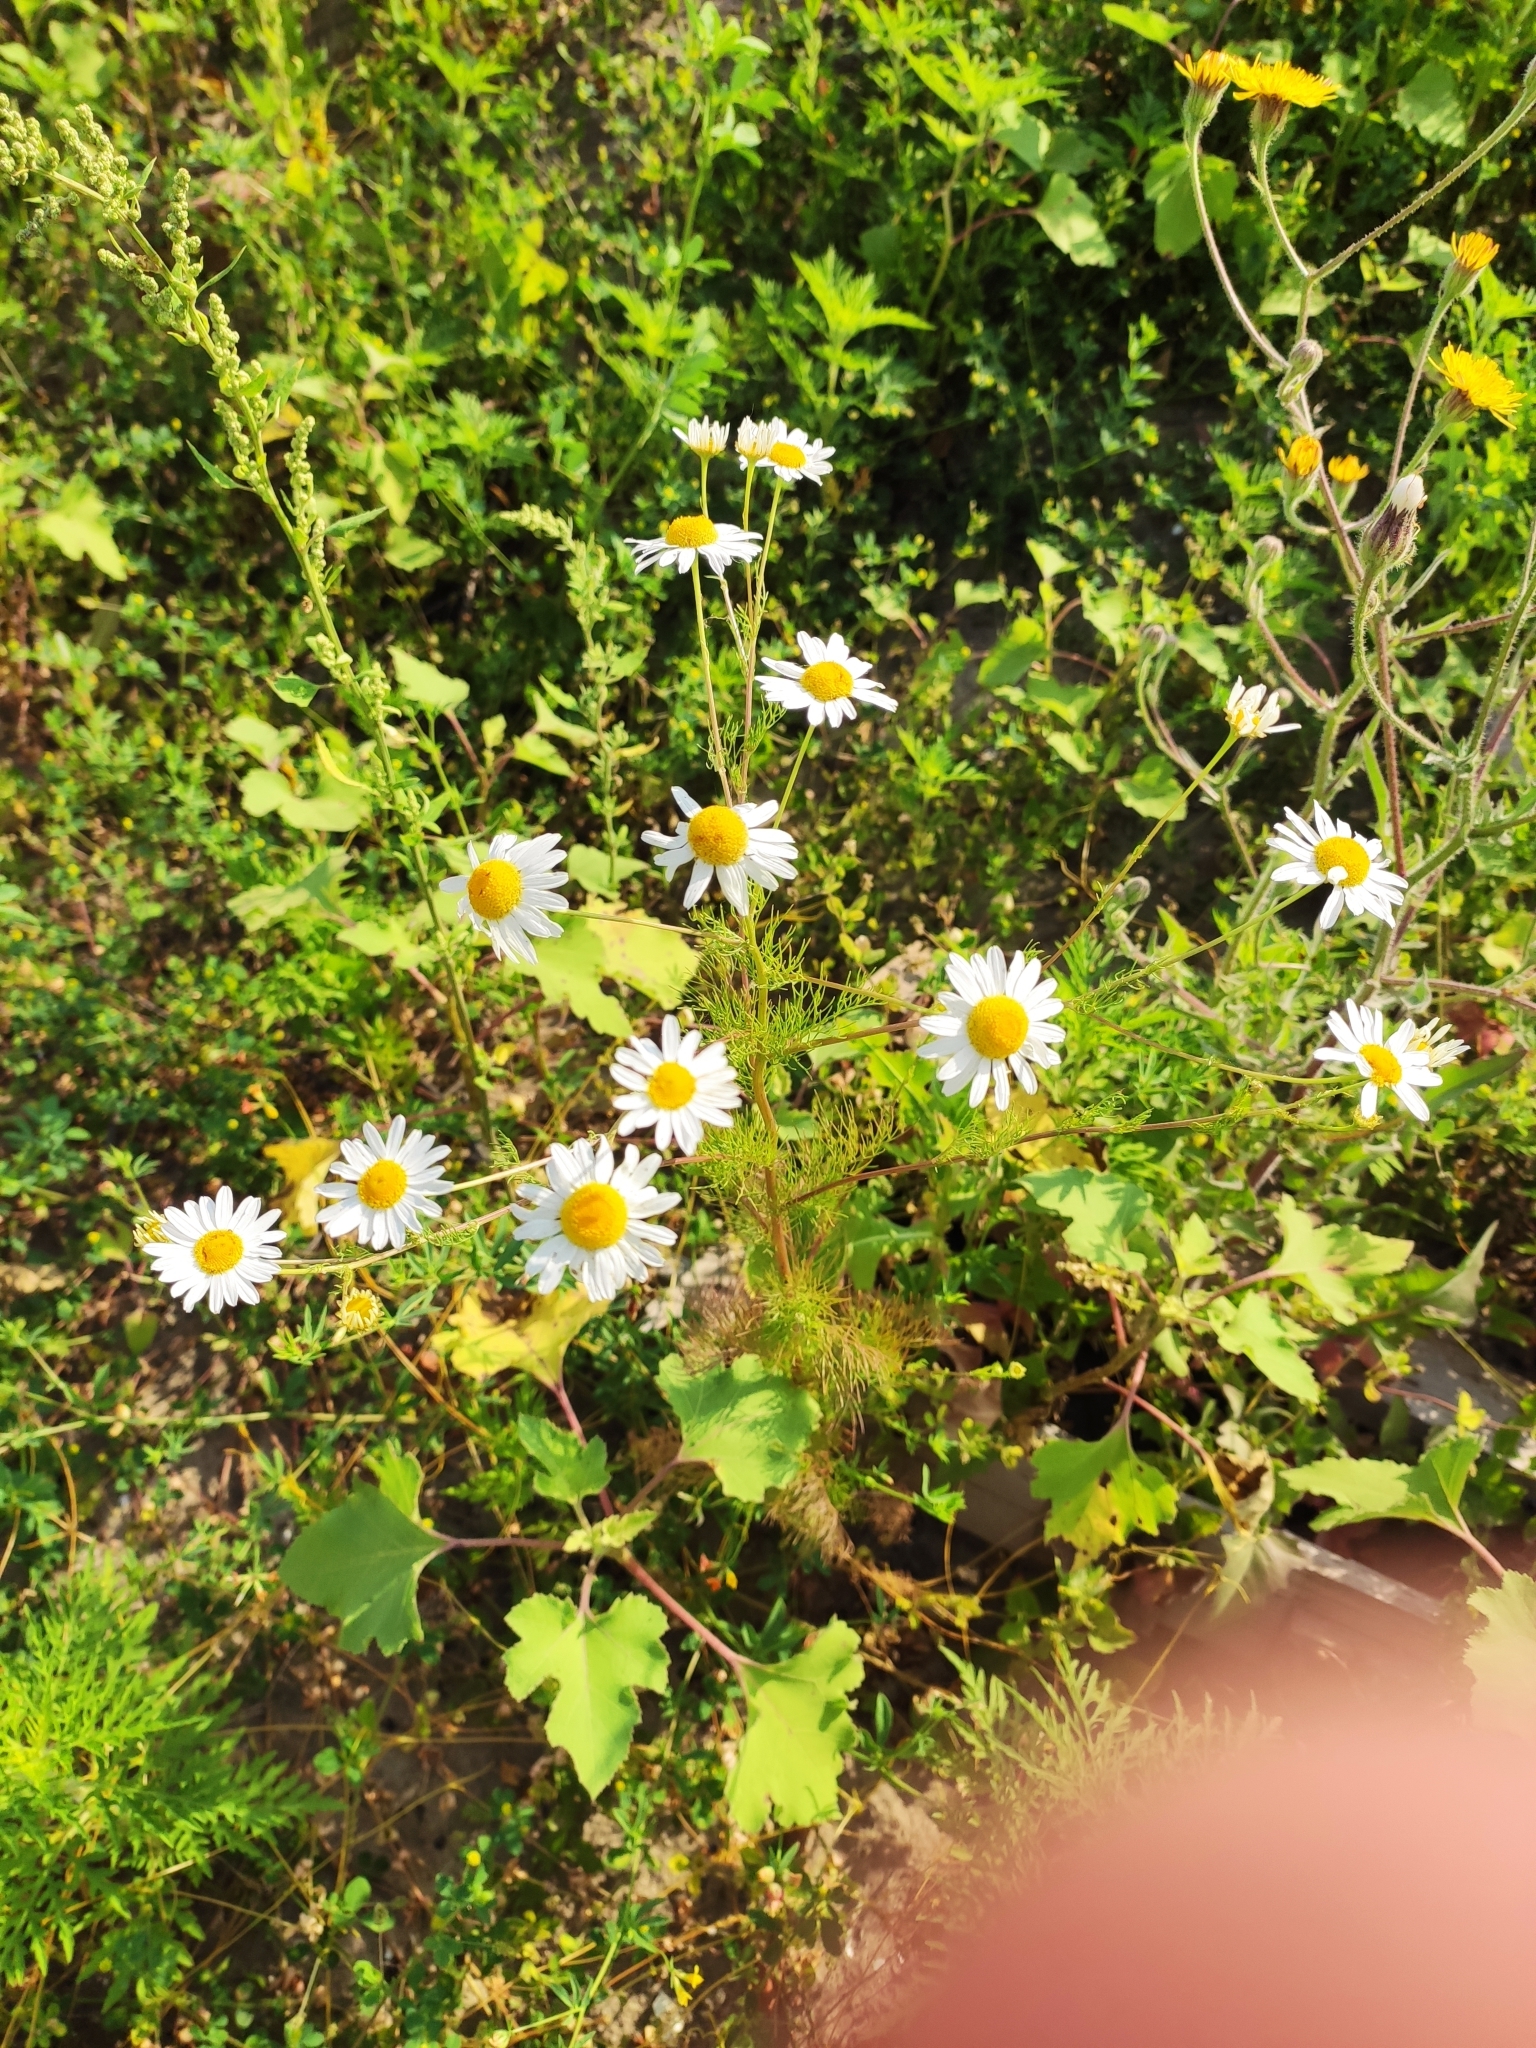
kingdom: Plantae
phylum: Tracheophyta
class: Magnoliopsida
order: Asterales
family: Asteraceae
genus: Tripleurospermum
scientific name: Tripleurospermum inodorum
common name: Scentless mayweed
